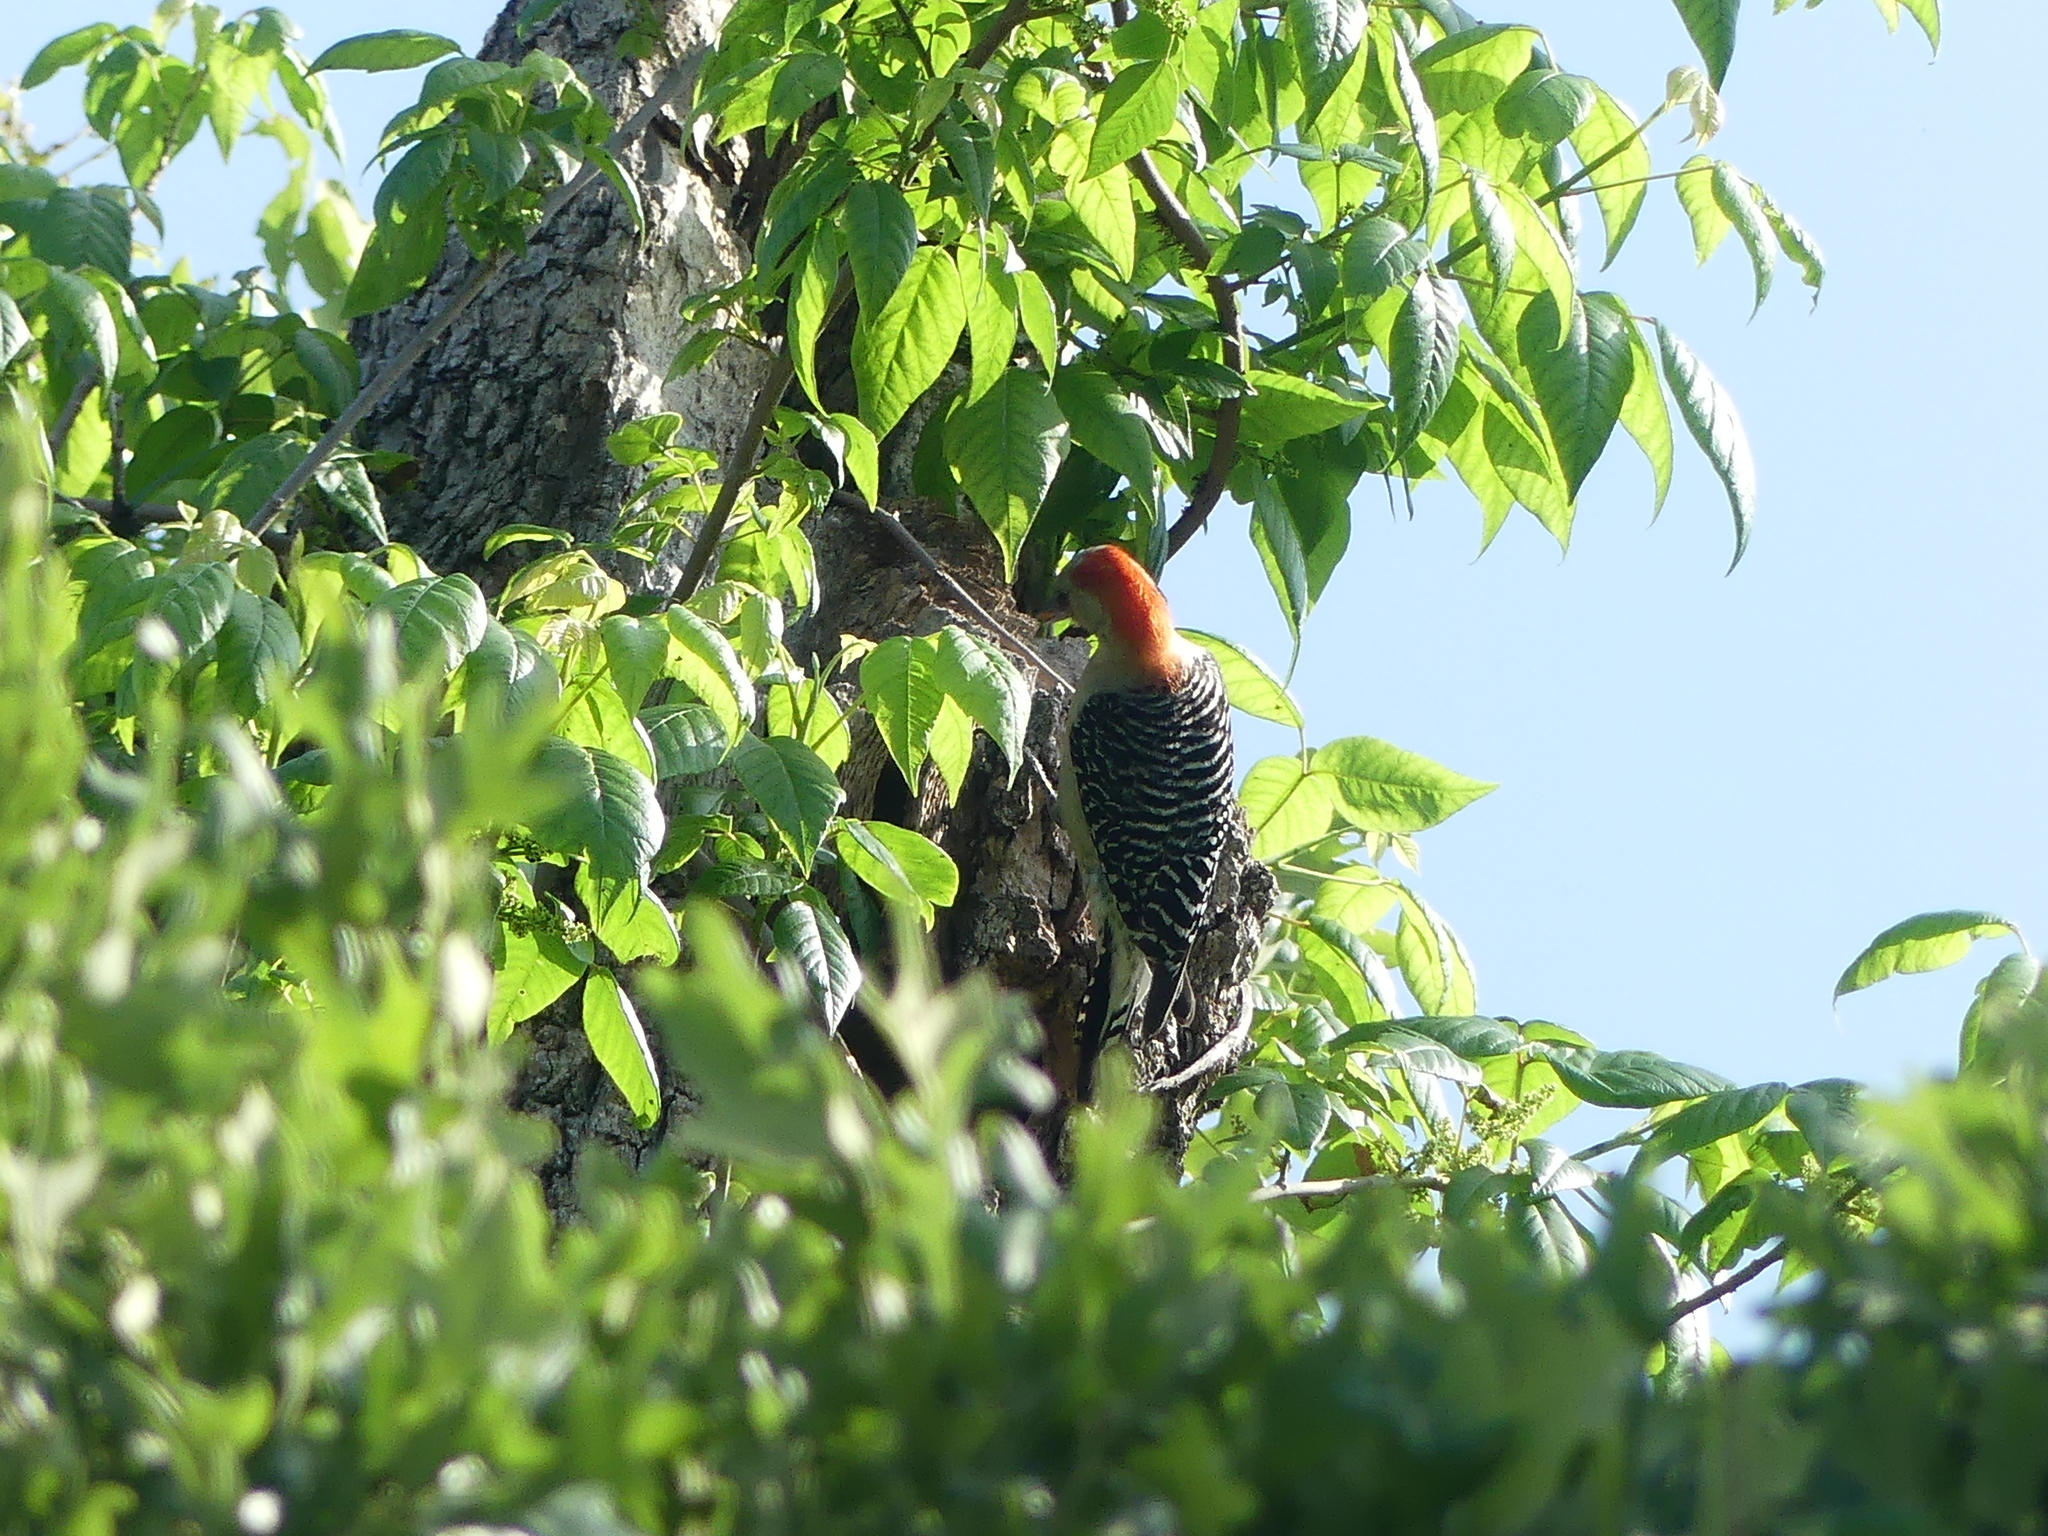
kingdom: Animalia
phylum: Chordata
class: Aves
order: Piciformes
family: Picidae
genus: Melanerpes
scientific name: Melanerpes carolinus
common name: Red-bellied woodpecker
